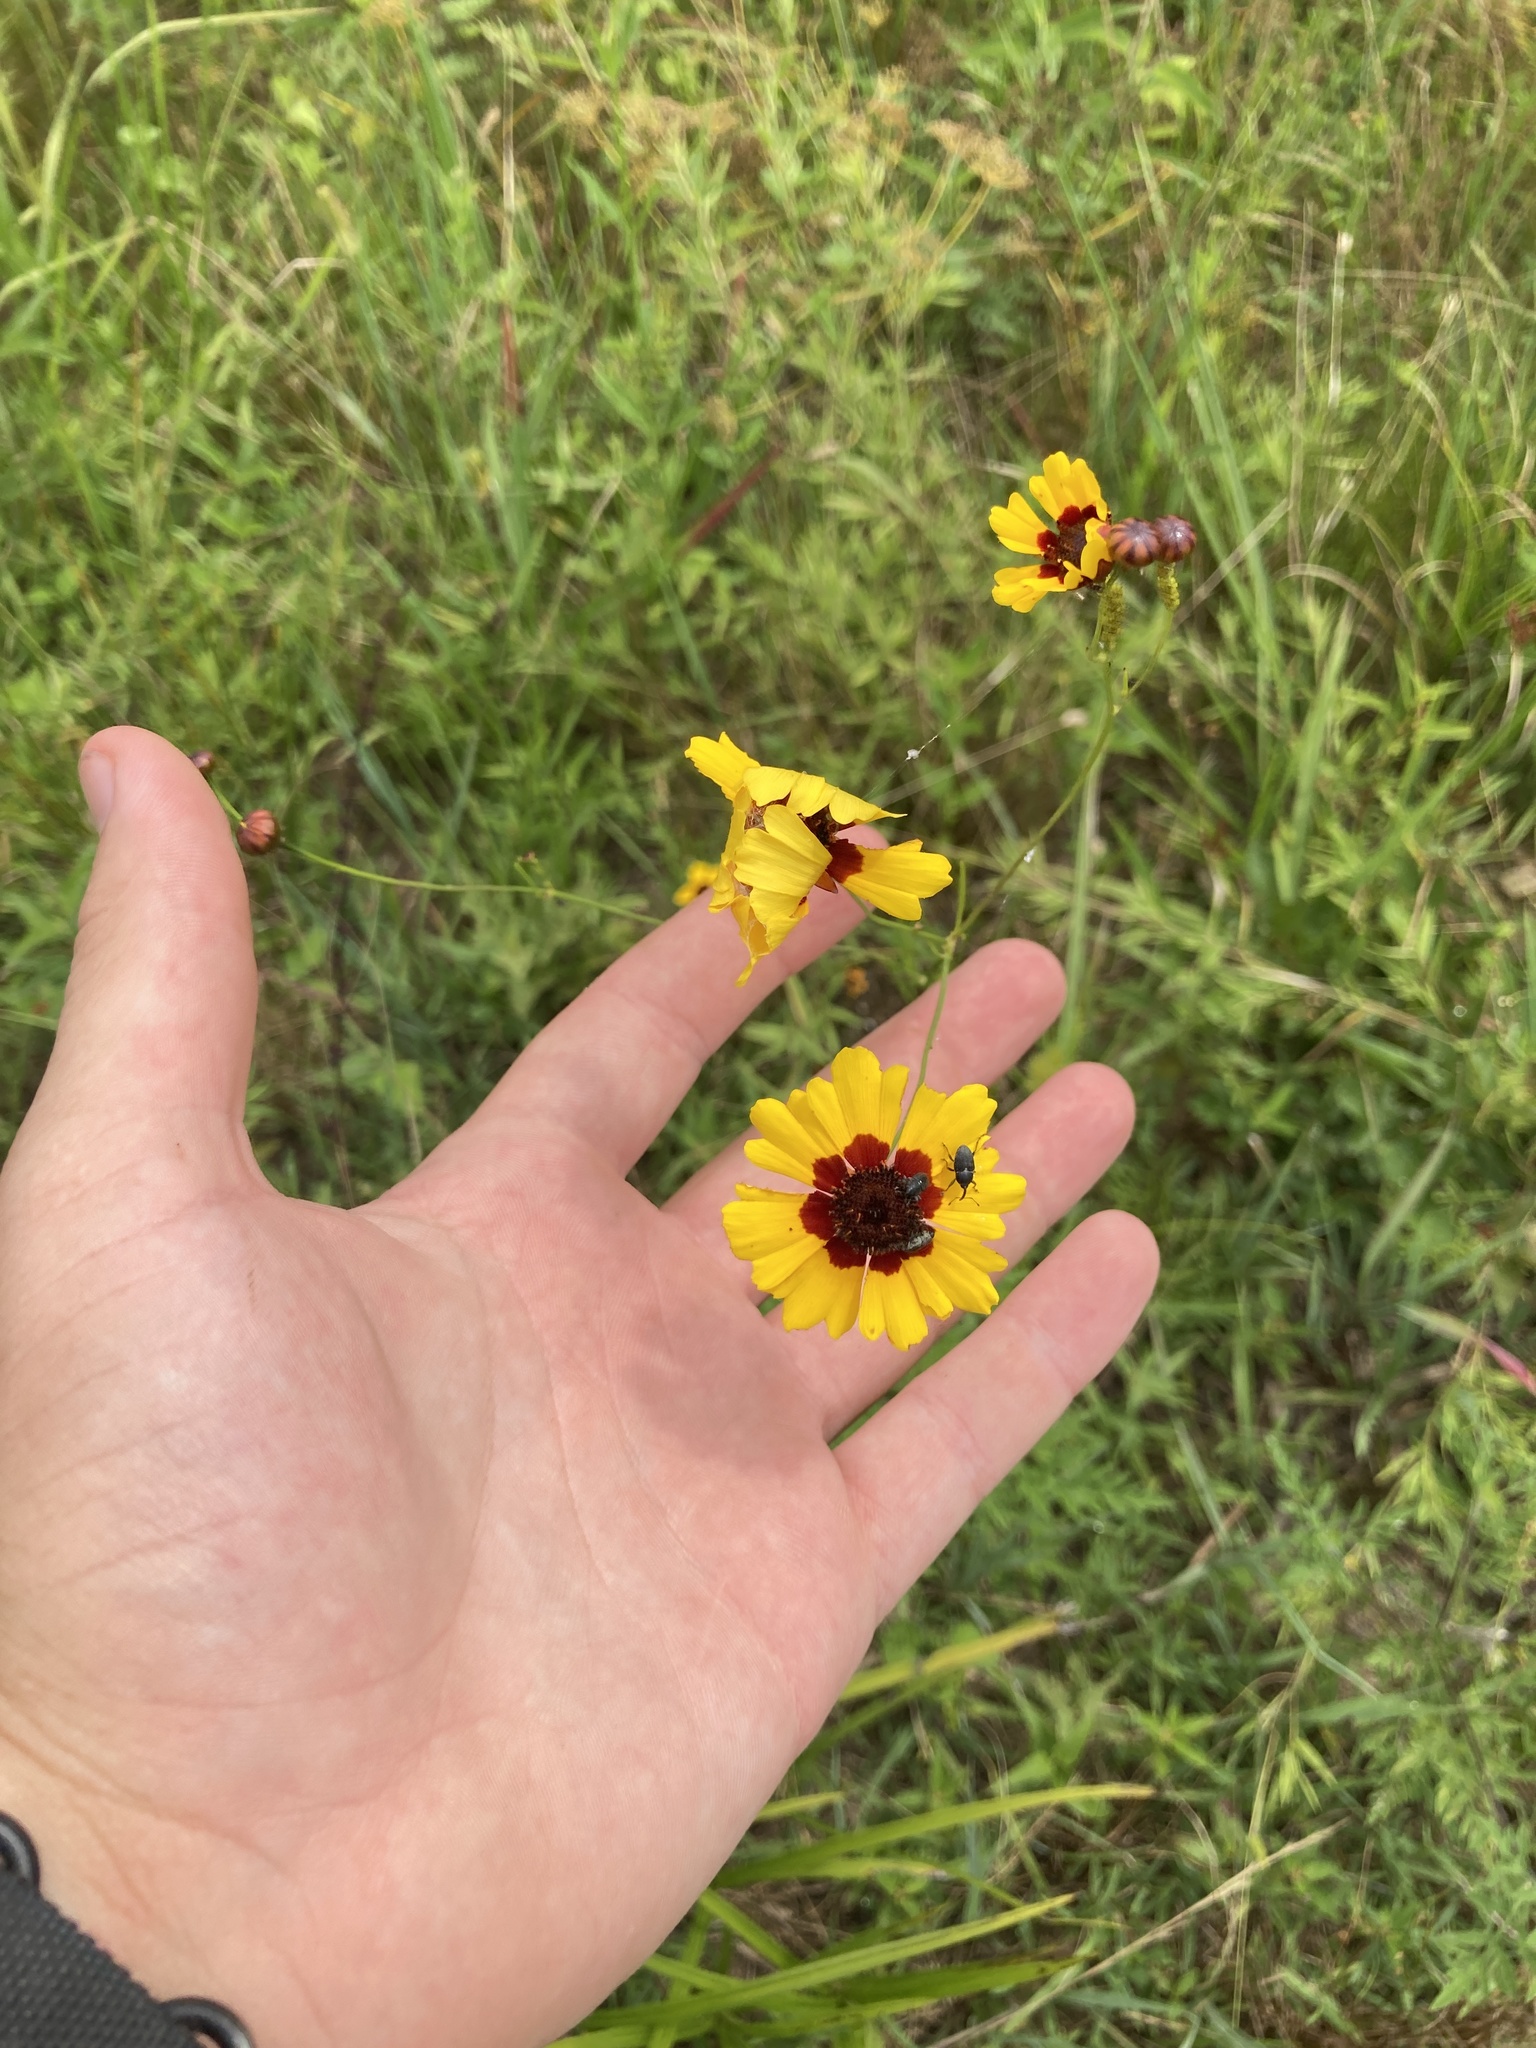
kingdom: Plantae
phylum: Tracheophyta
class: Magnoliopsida
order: Asterales
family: Asteraceae
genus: Coreopsis
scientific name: Coreopsis tinctoria
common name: Garden tickseed
